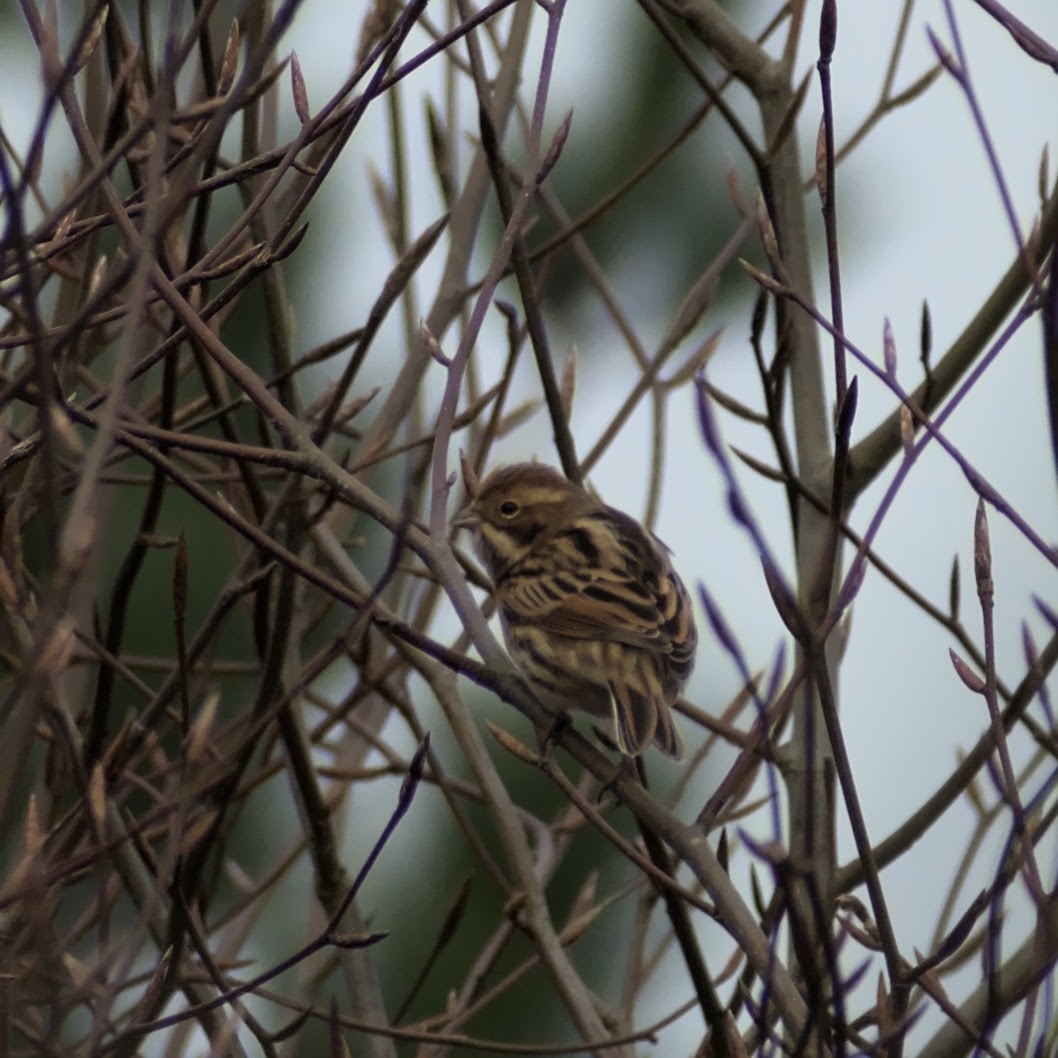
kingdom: Animalia
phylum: Chordata
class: Aves
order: Passeriformes
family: Emberizidae
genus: Emberiza
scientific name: Emberiza schoeniclus
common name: Reed bunting
